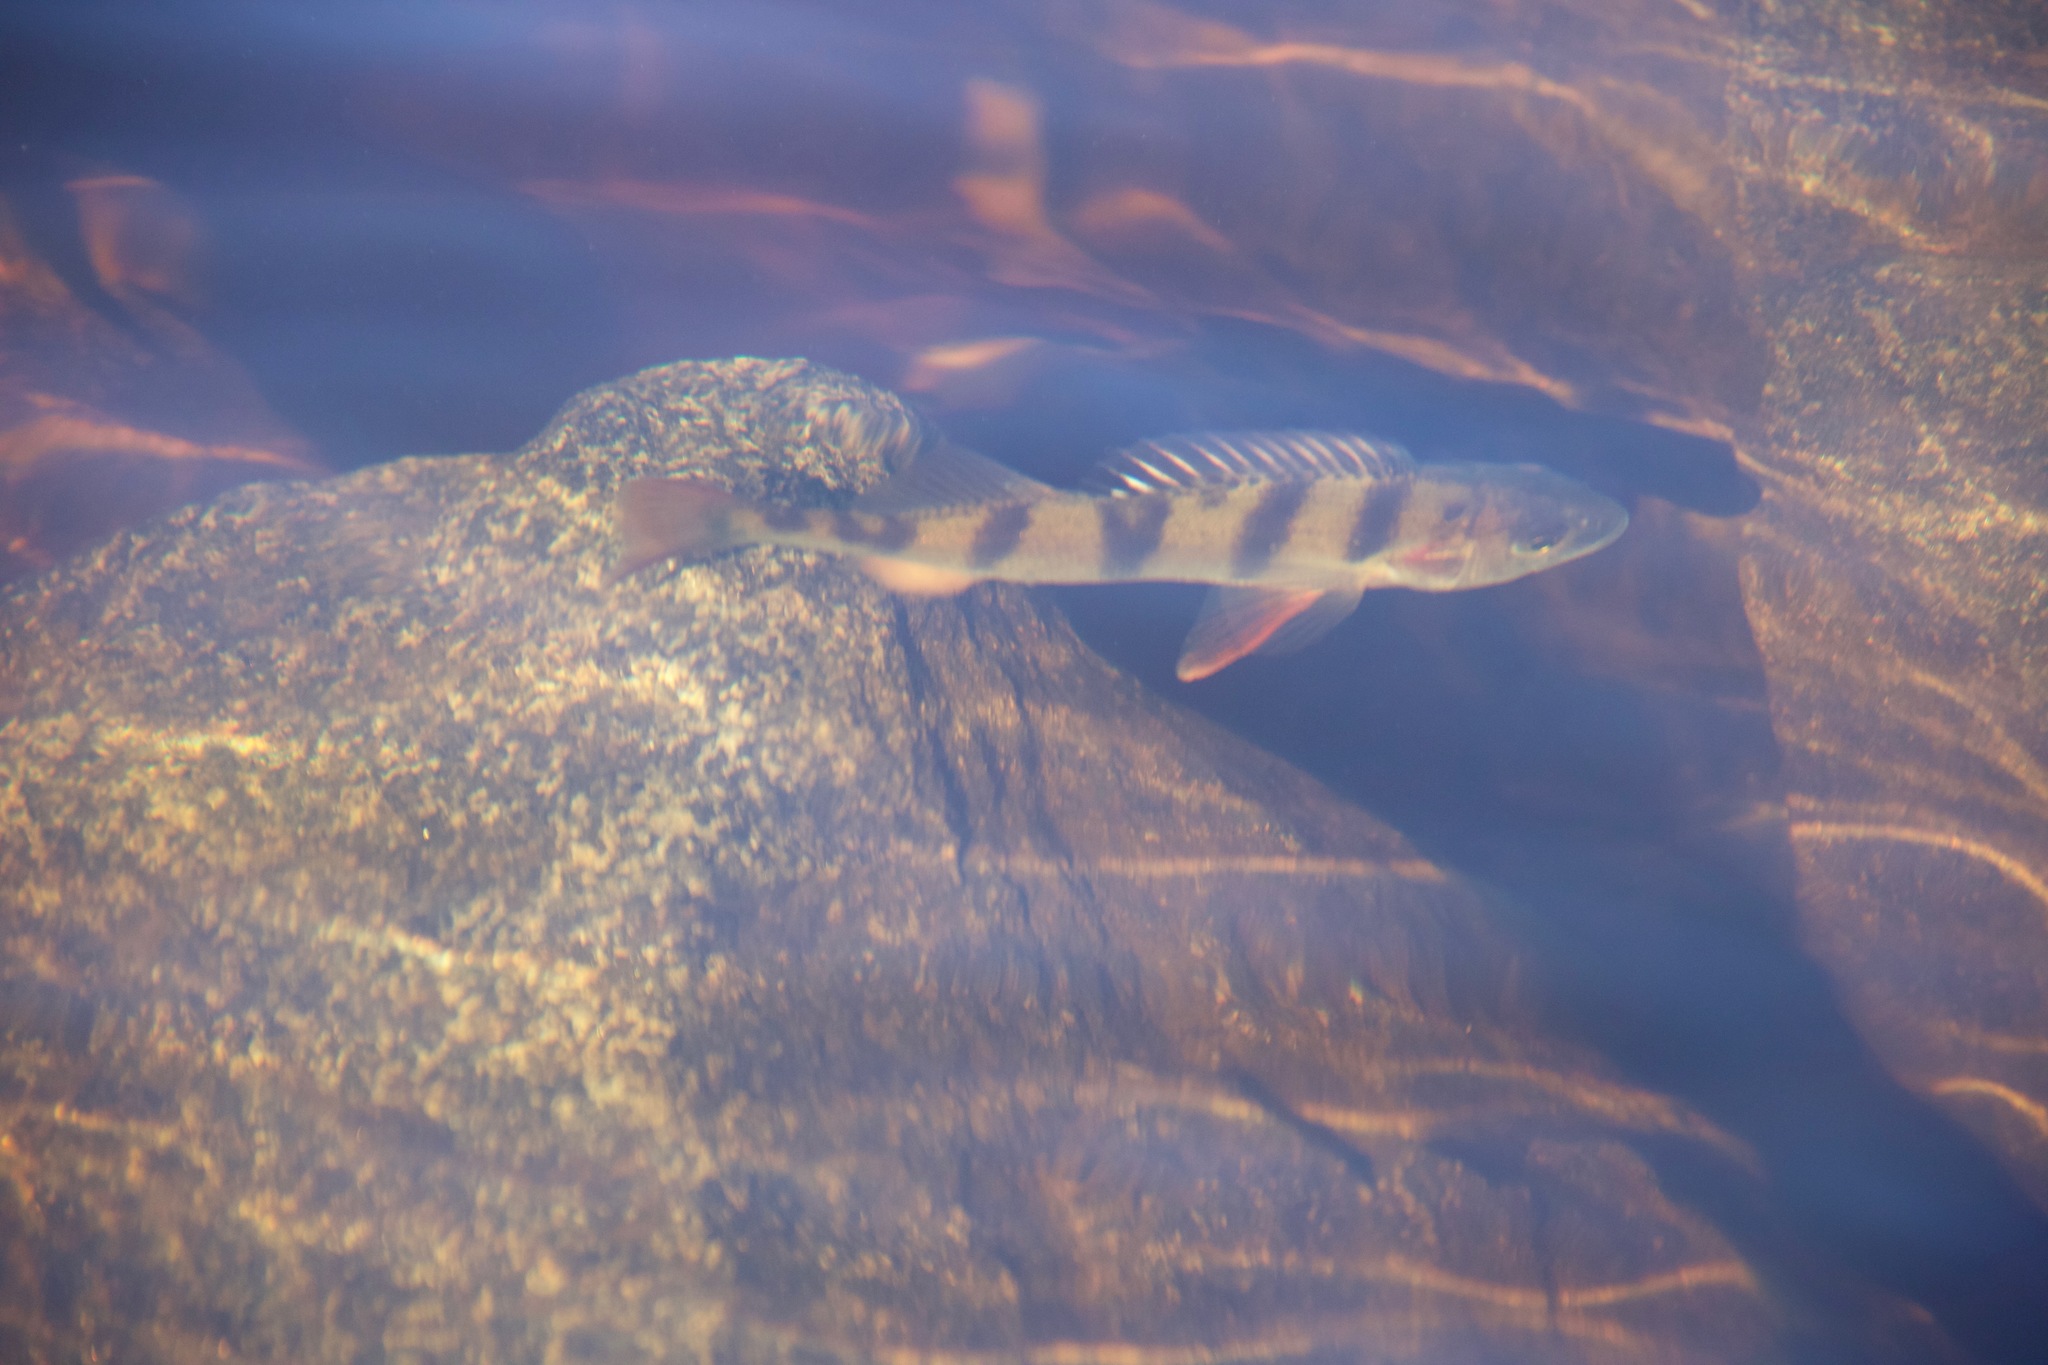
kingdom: Animalia
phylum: Chordata
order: Perciformes
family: Percidae
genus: Perca
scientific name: Perca fluviatilis
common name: Perch
